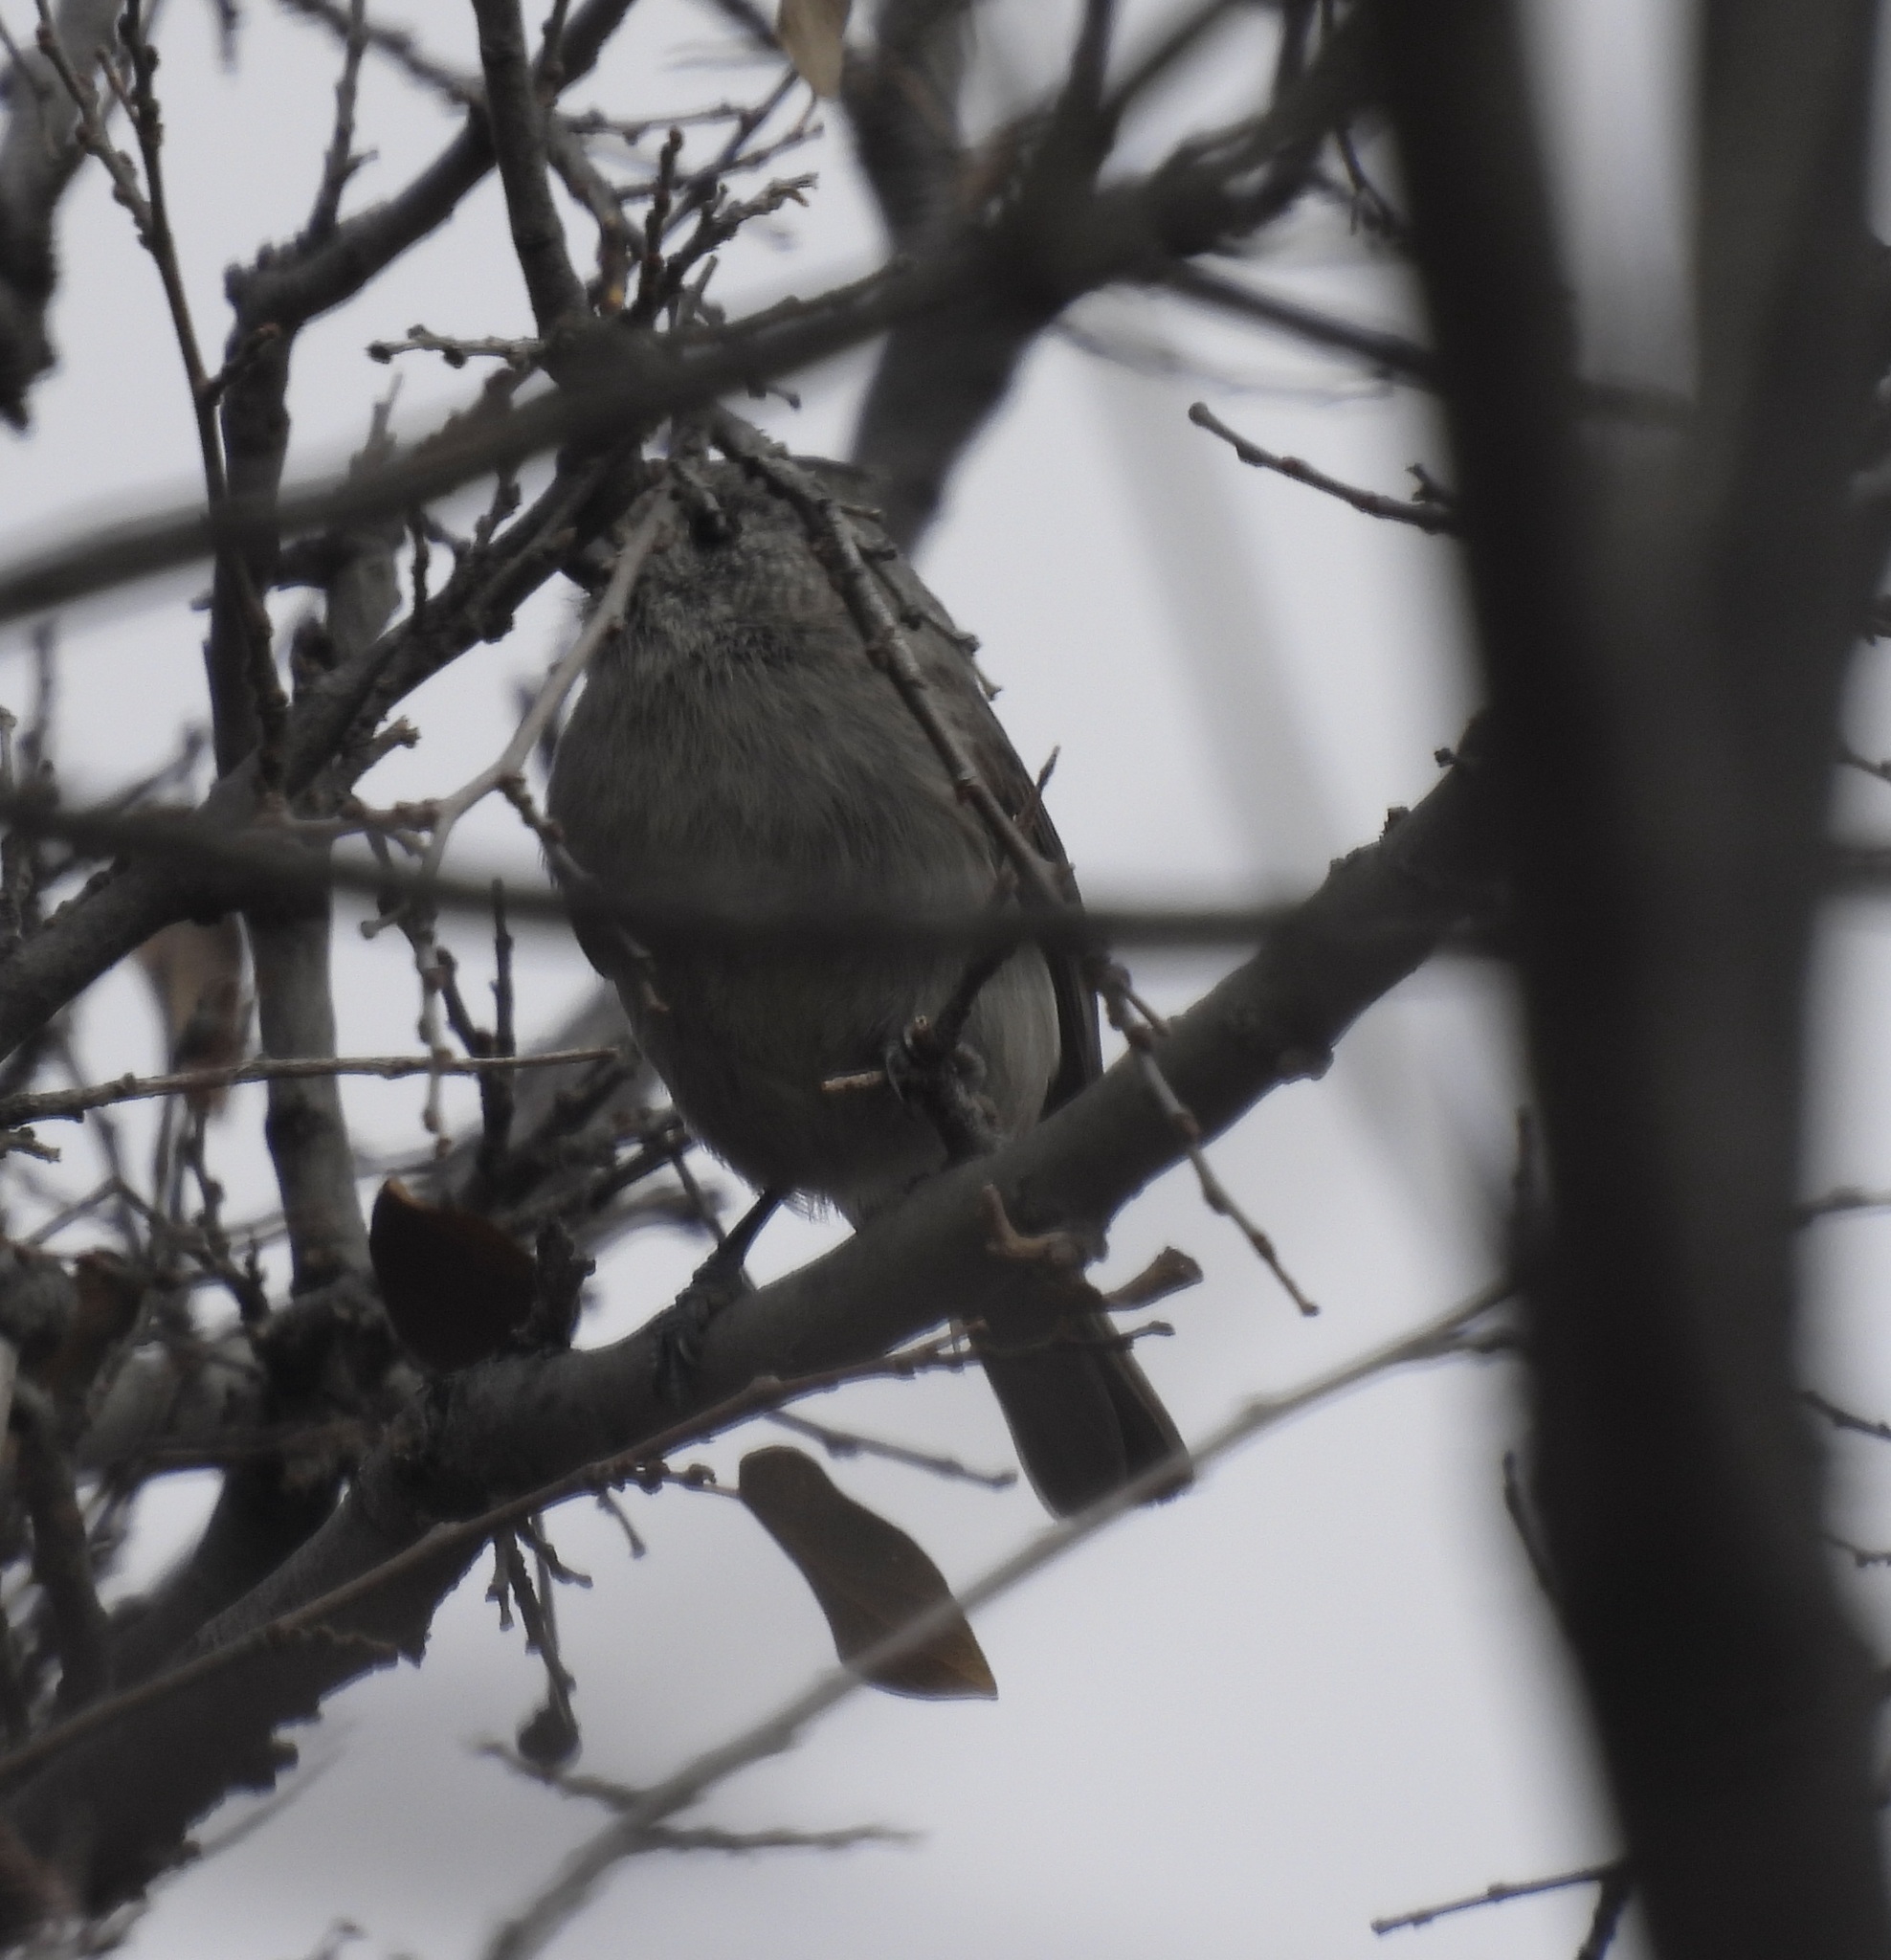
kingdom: Animalia
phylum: Chordata
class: Aves
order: Passeriformes
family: Paridae
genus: Baeolophus
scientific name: Baeolophus ridgwayi
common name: Juniper titmouse
